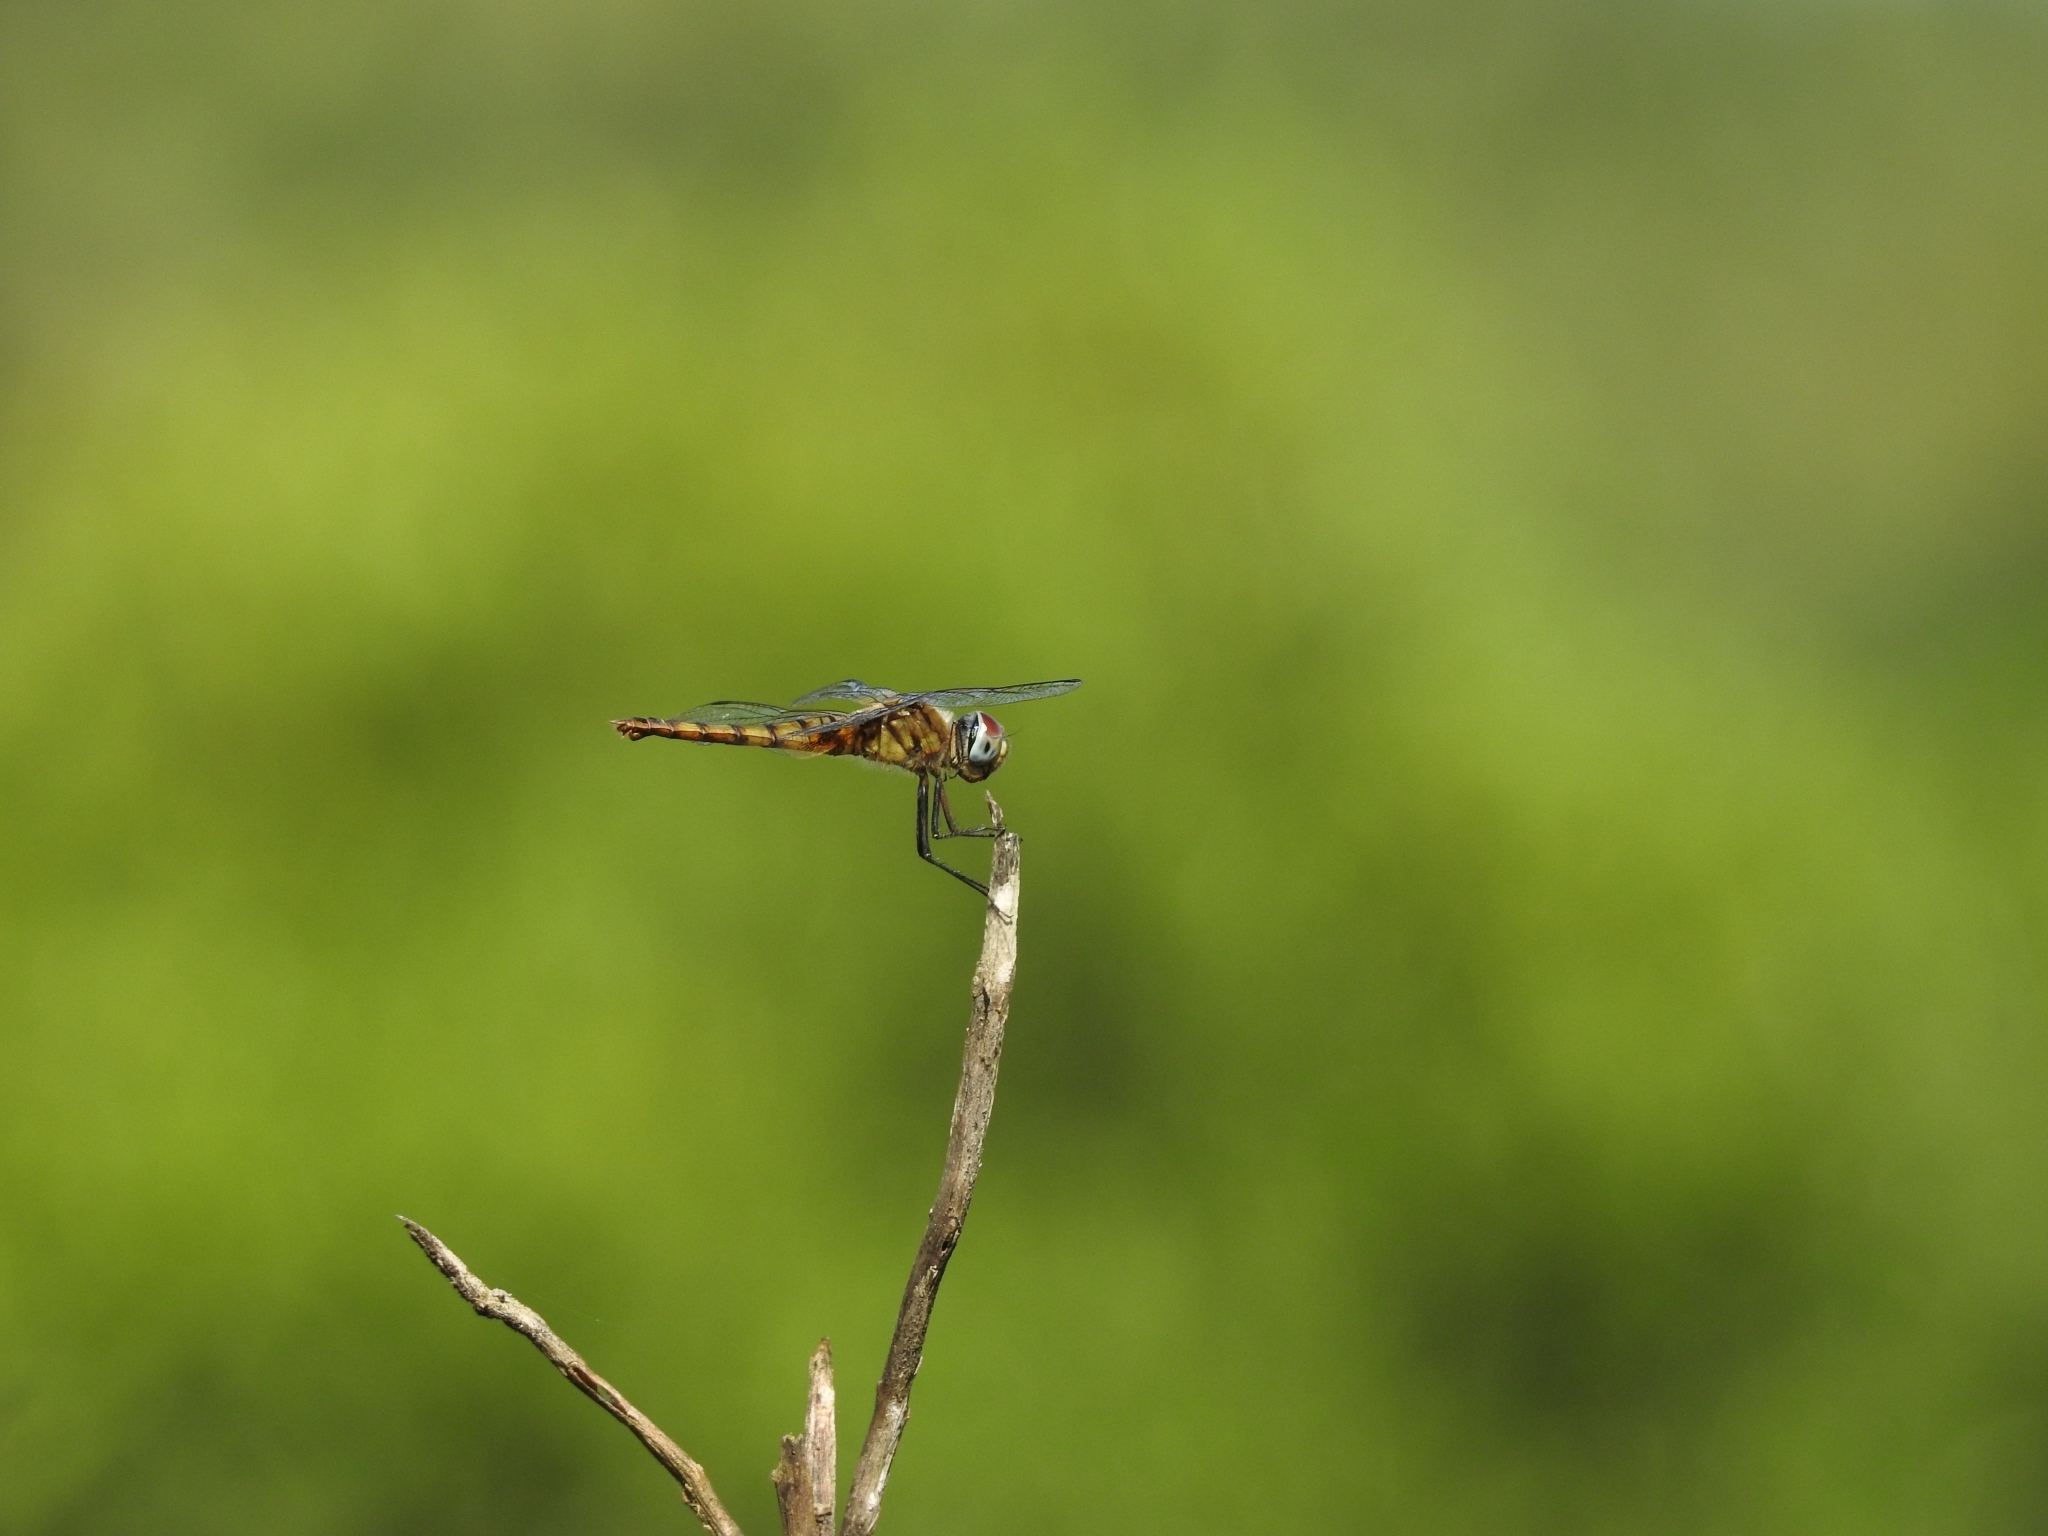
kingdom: Animalia
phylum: Arthropoda
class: Insecta
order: Odonata
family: Libellulidae
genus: Urothemis
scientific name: Urothemis signata
